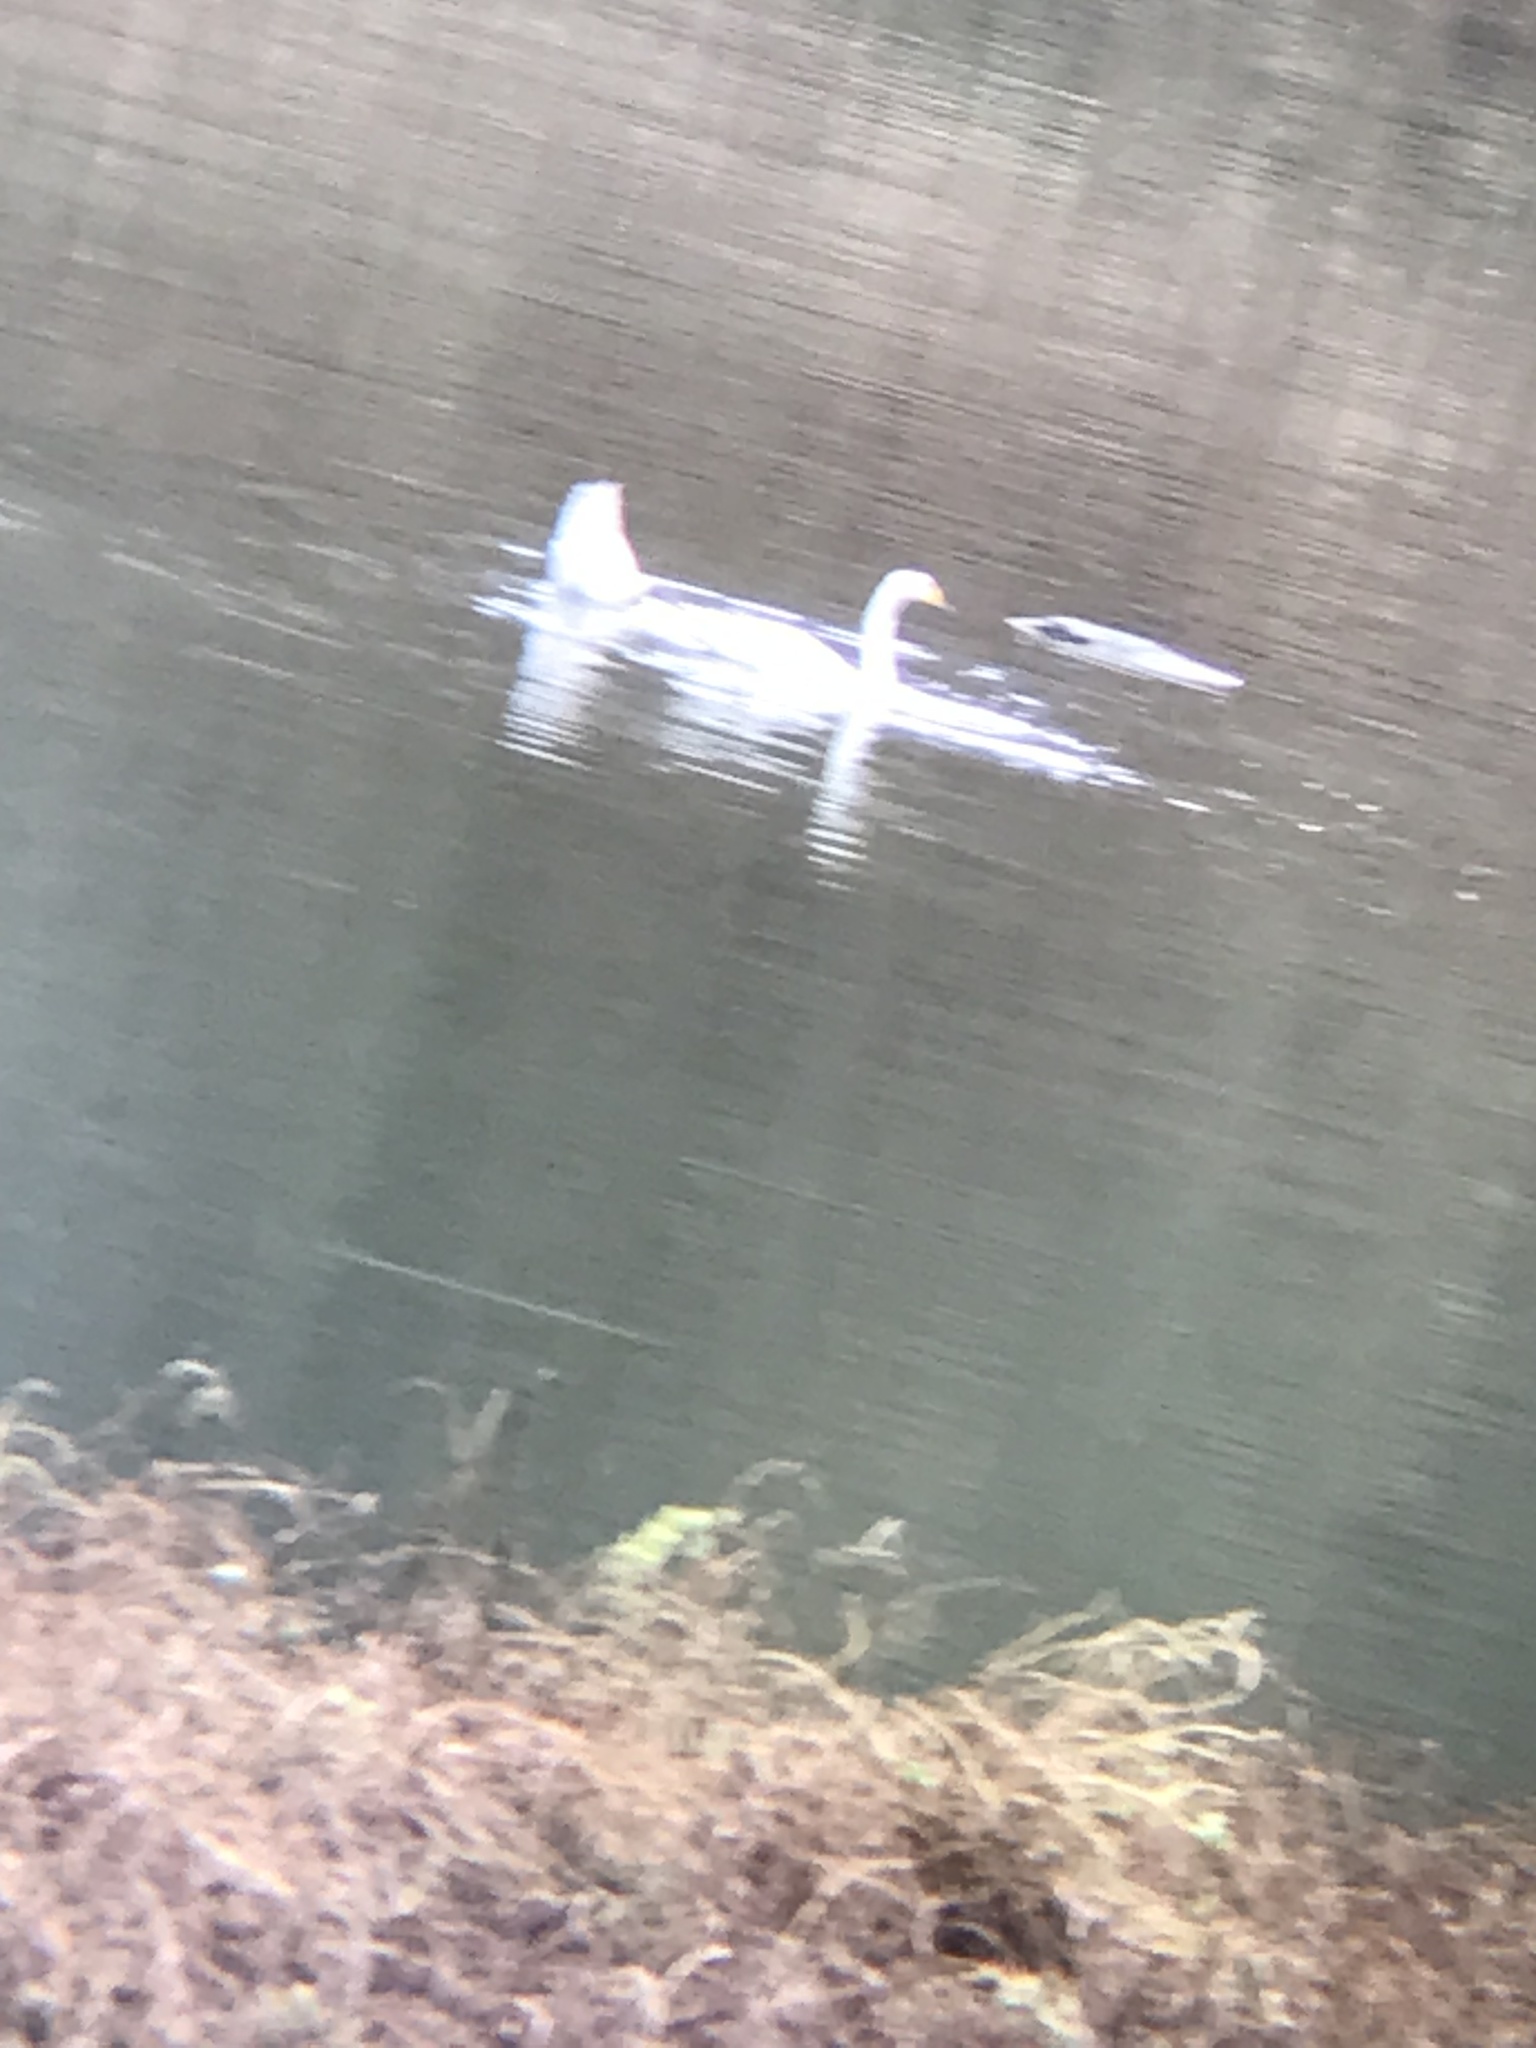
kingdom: Animalia
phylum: Chordata
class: Aves
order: Anseriformes
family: Anatidae
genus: Cygnus
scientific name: Cygnus cygnus
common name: Whooper swan
